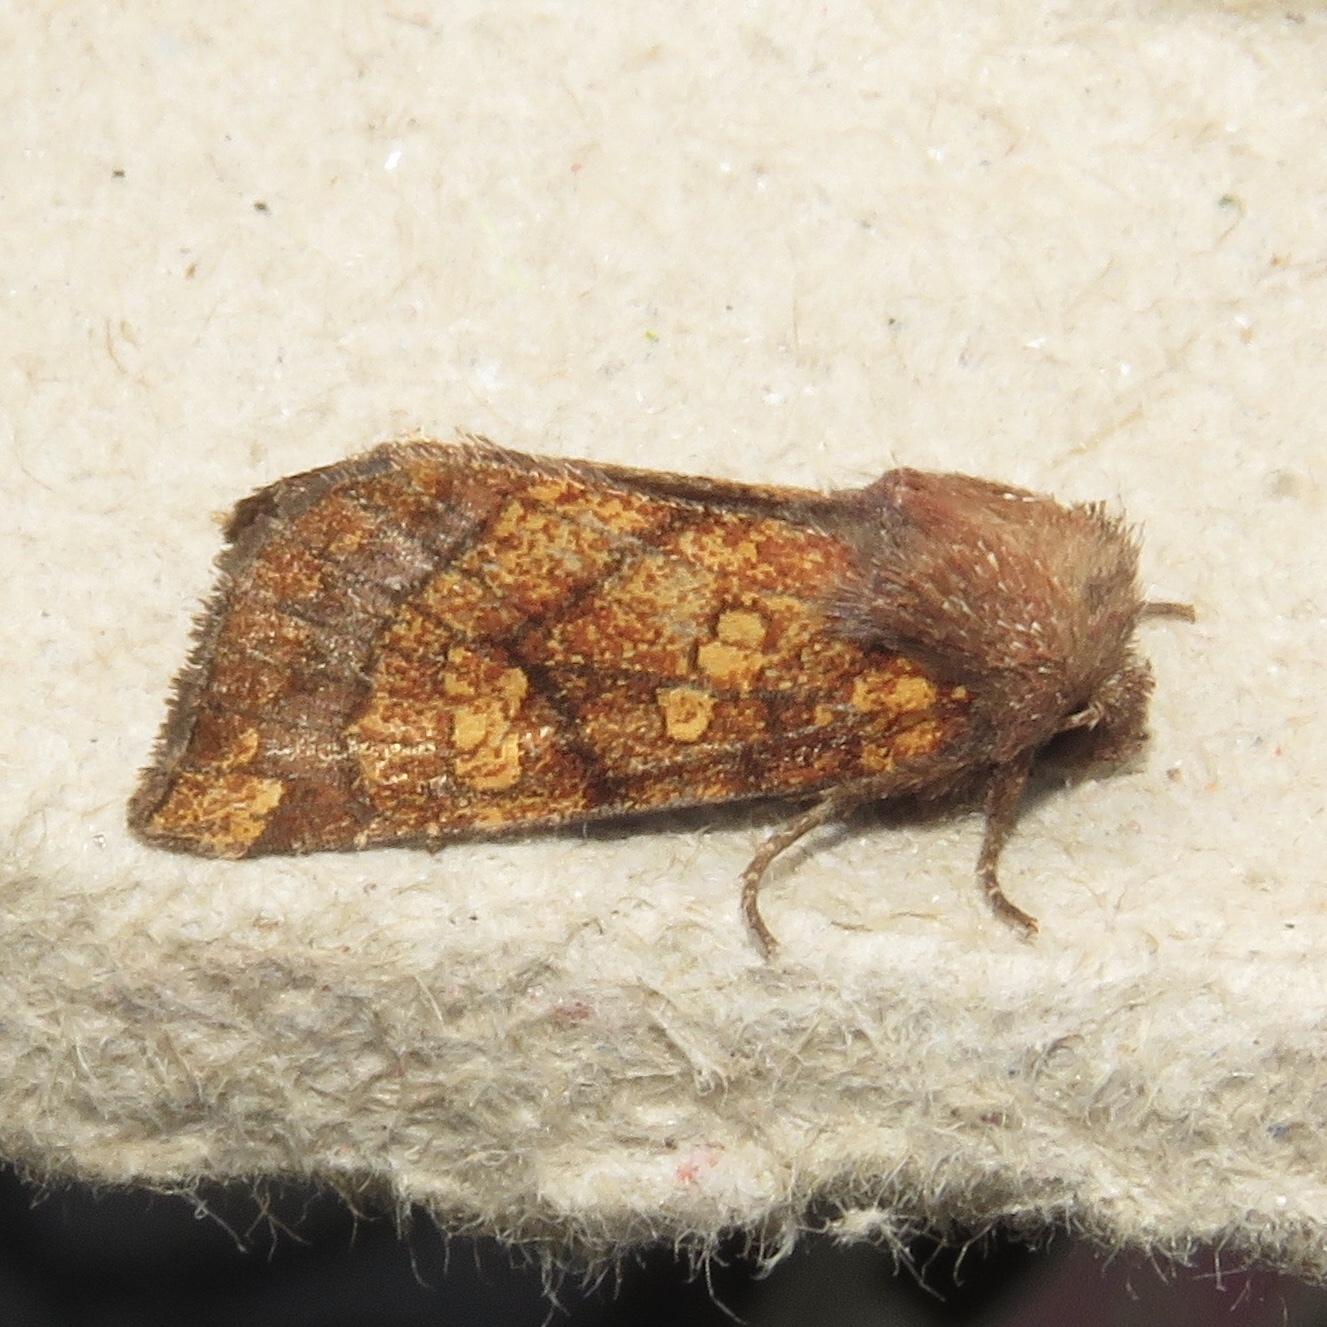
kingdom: Animalia
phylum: Arthropoda
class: Insecta
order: Lepidoptera
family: Noctuidae
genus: Papaipema
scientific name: Papaipema impecuniosa
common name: Aster borer moth
